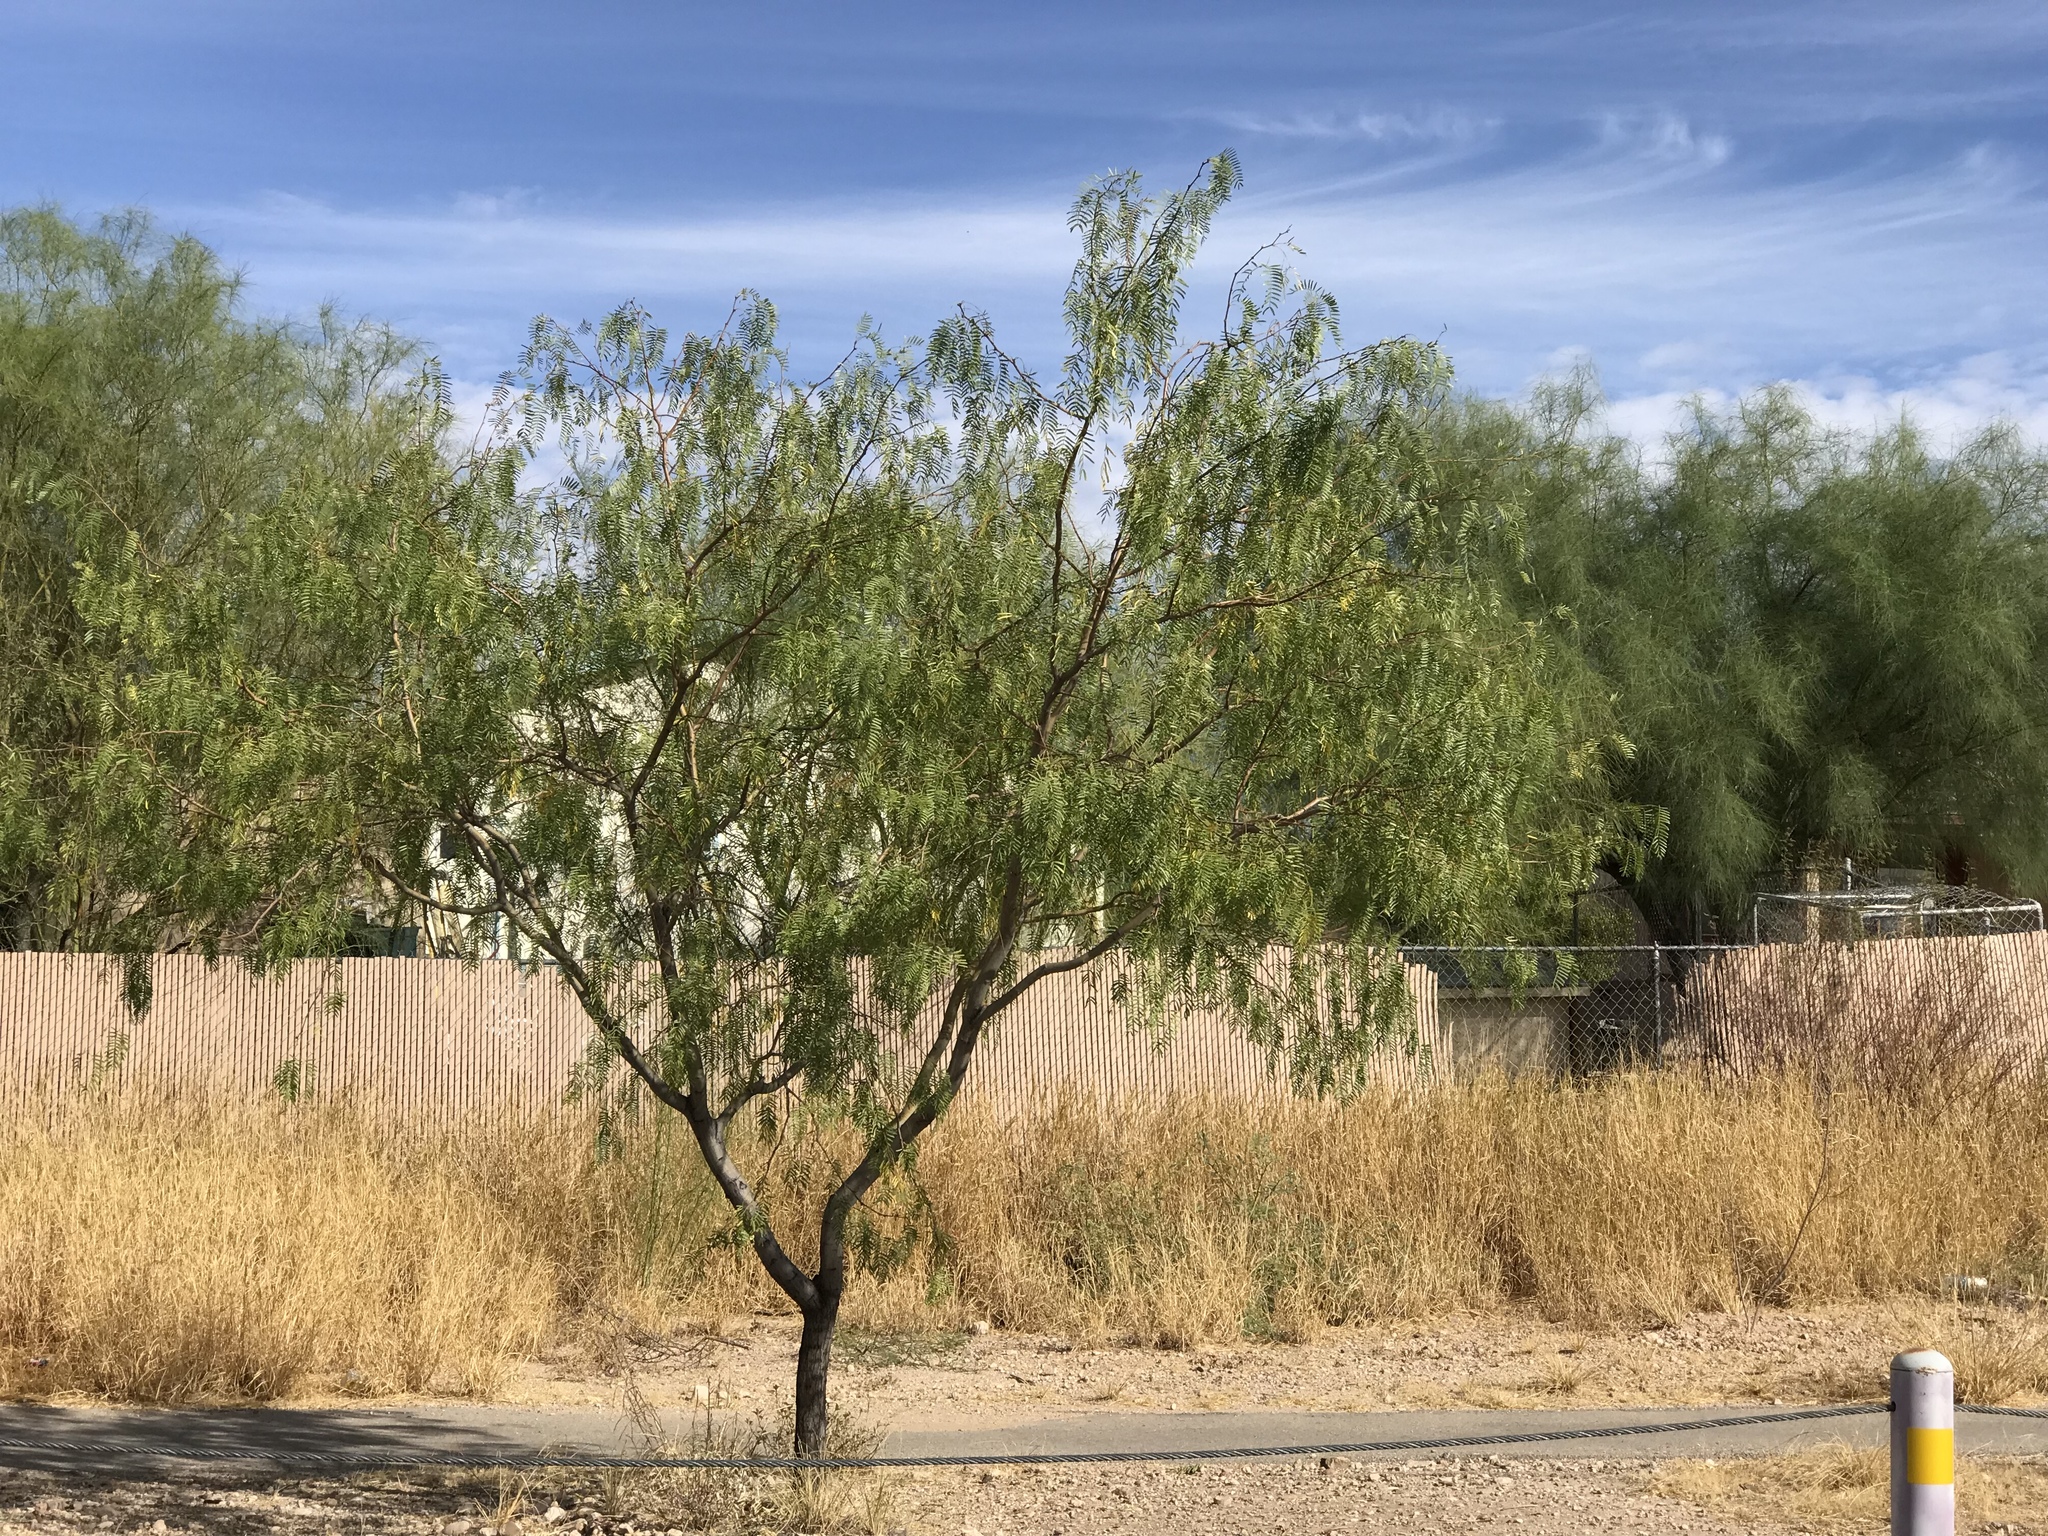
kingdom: Plantae
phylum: Tracheophyta
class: Magnoliopsida
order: Fabales
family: Fabaceae
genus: Prosopis
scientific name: Prosopis glandulosa
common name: Honey mesquite
